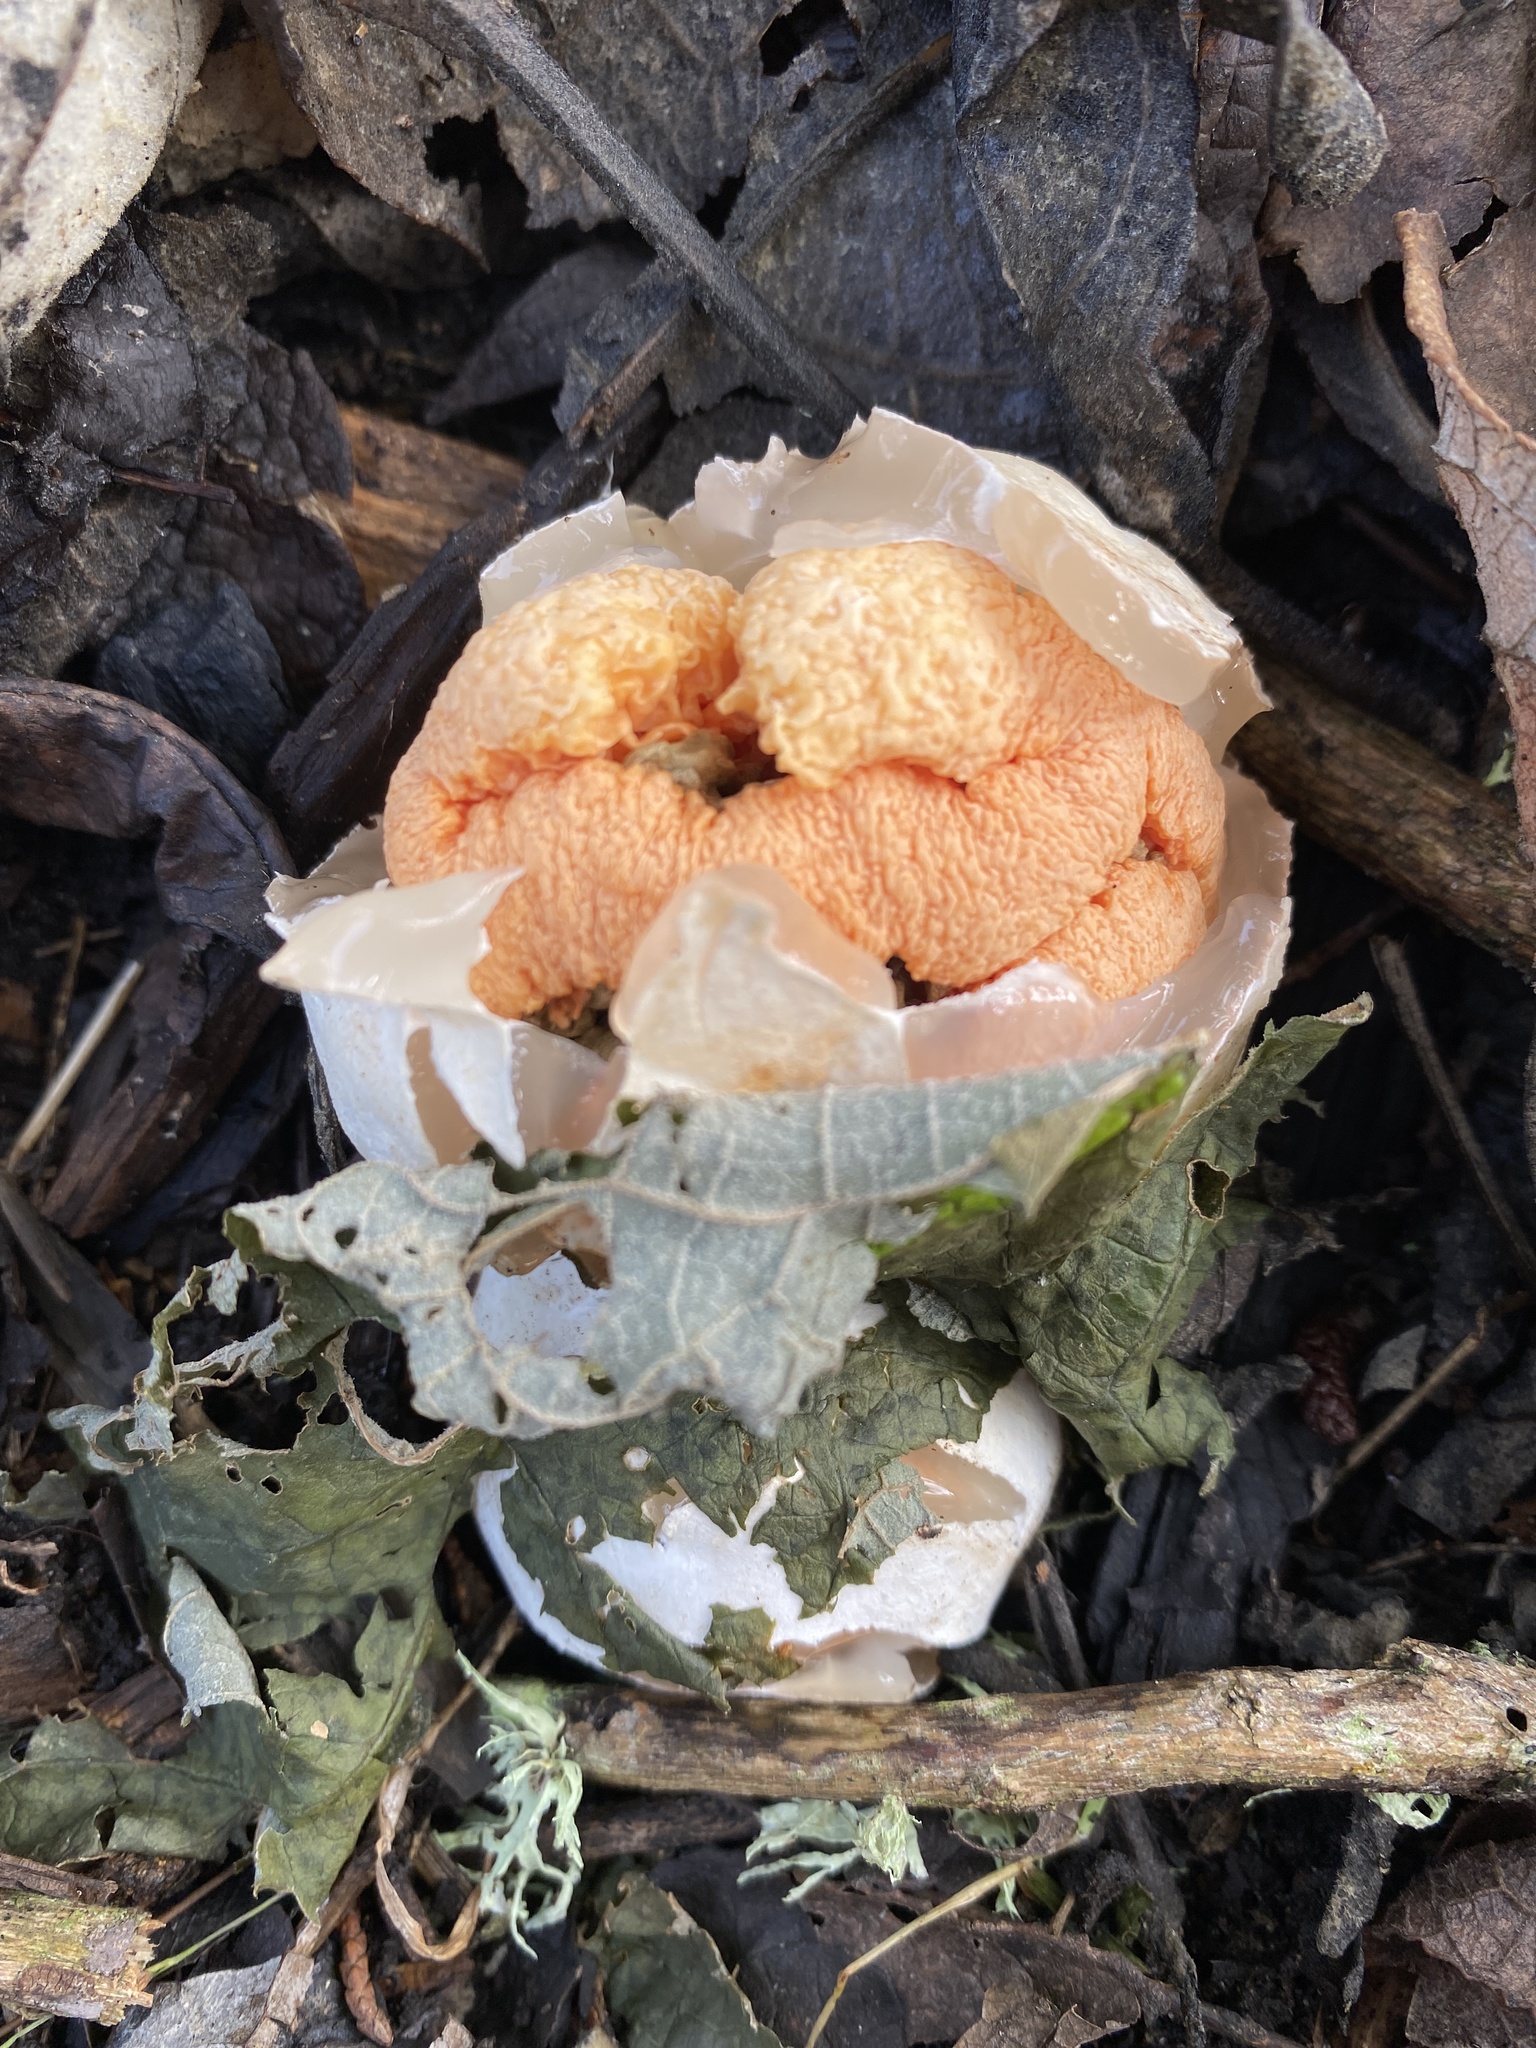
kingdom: Fungi
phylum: Basidiomycota
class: Agaricomycetes
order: Phallales
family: Phallaceae
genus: Clathrus
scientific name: Clathrus ruber
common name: Red cage
